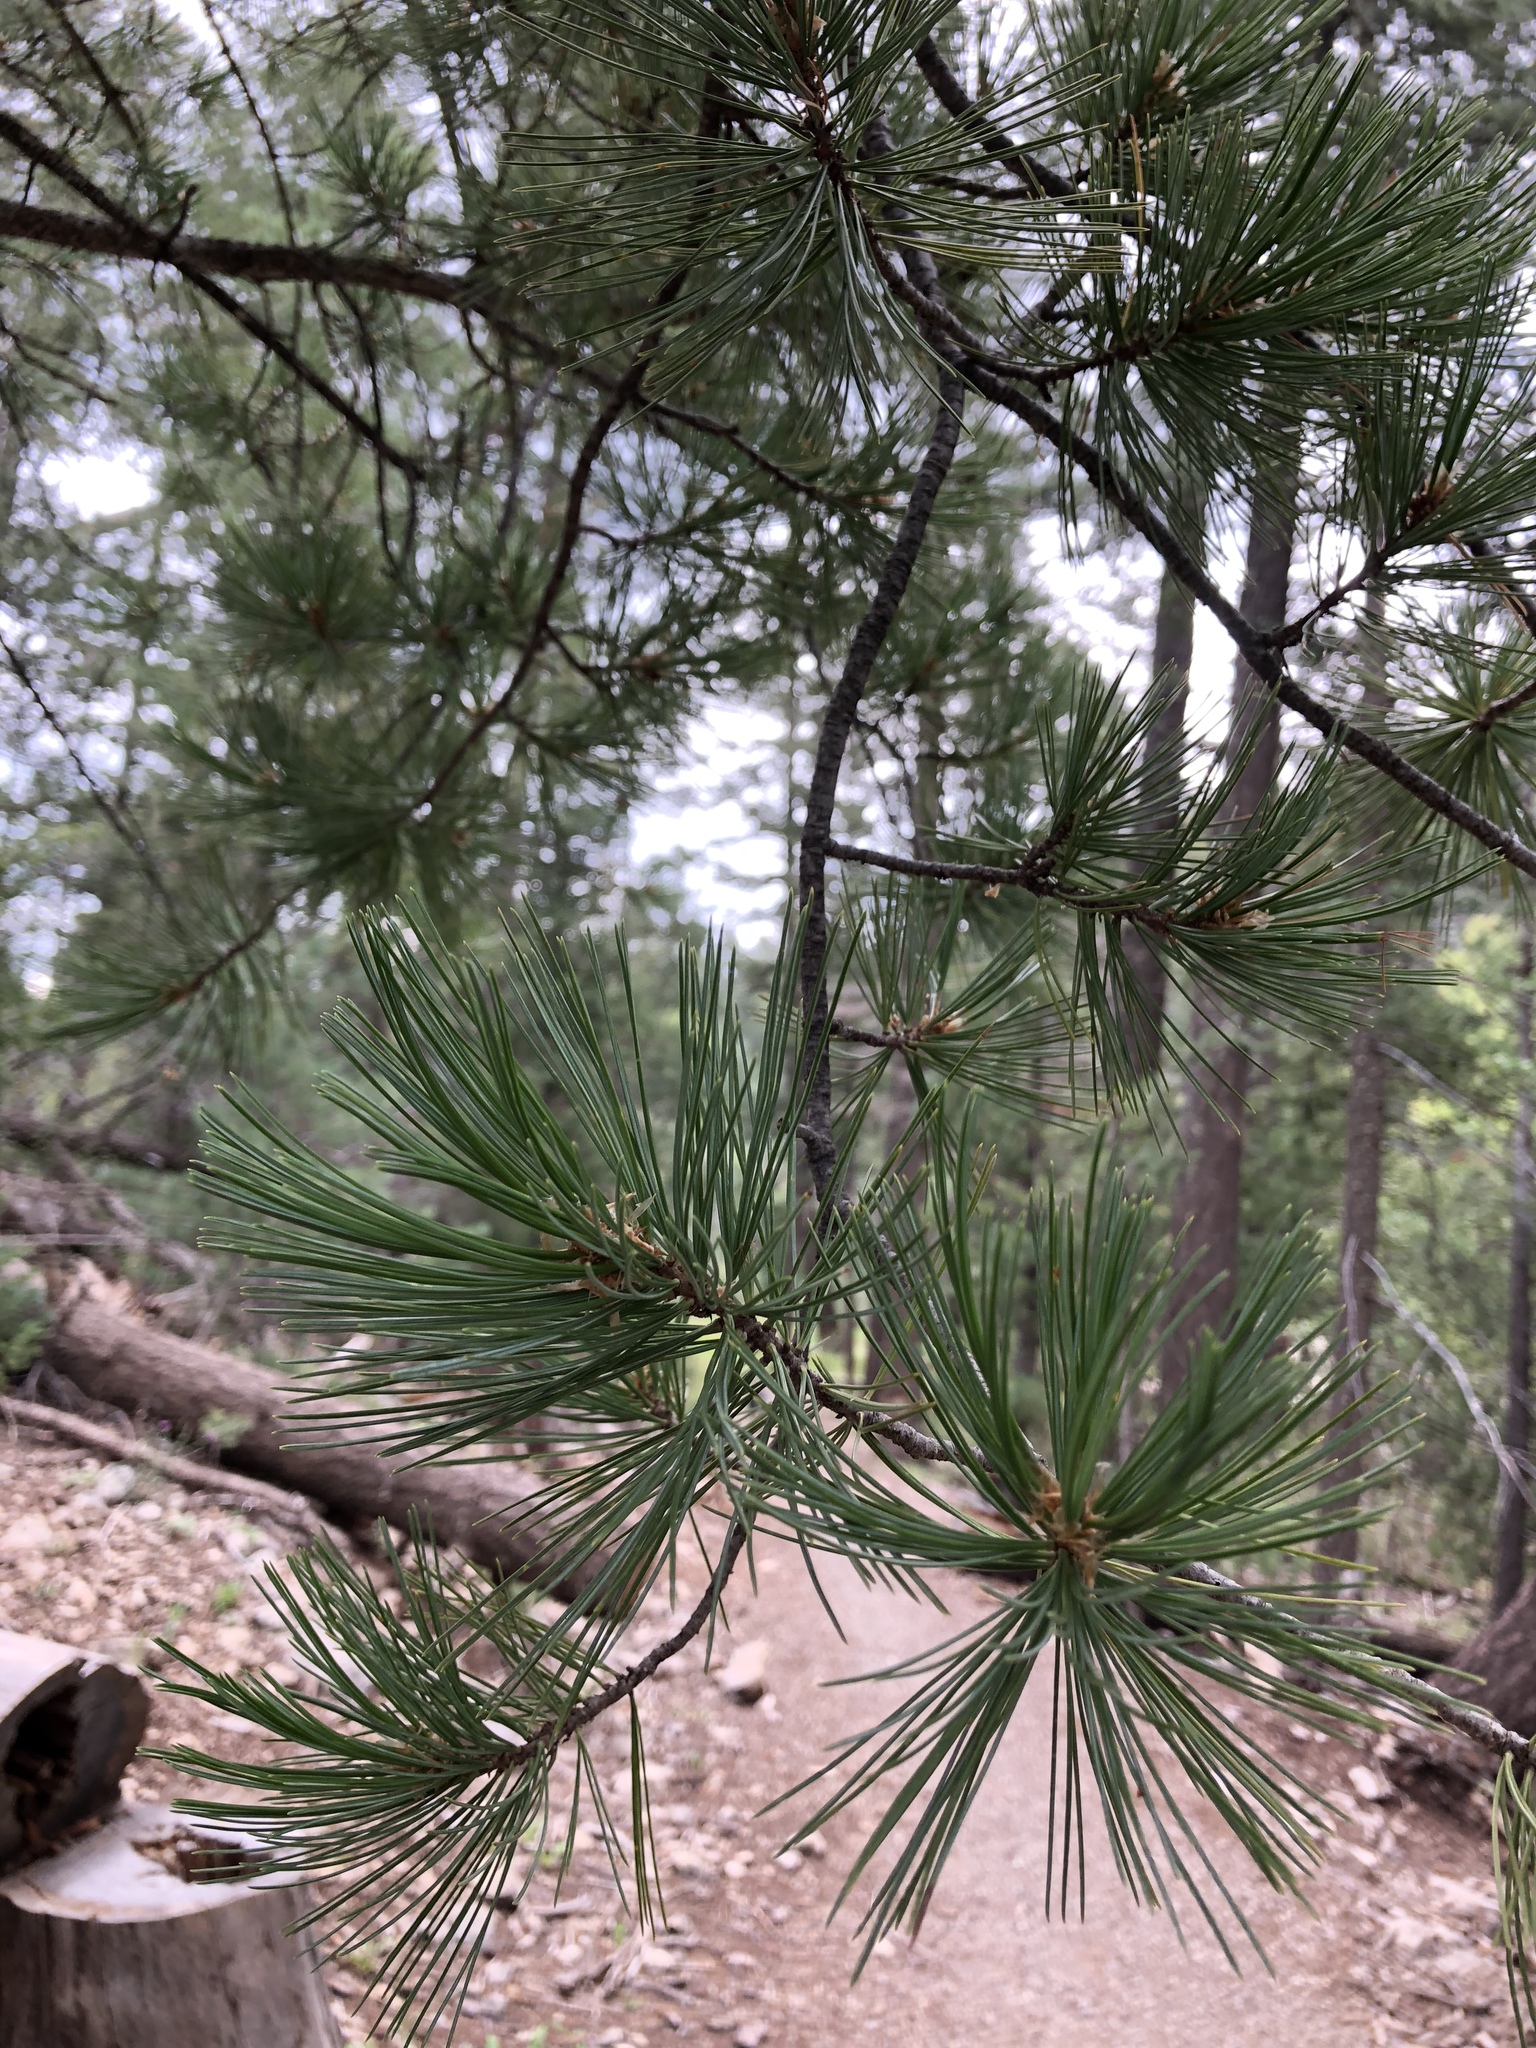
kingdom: Plantae
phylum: Tracheophyta
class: Pinopsida
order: Pinales
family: Pinaceae
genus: Pinus
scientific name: Pinus ponderosa
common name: Western yellow-pine
